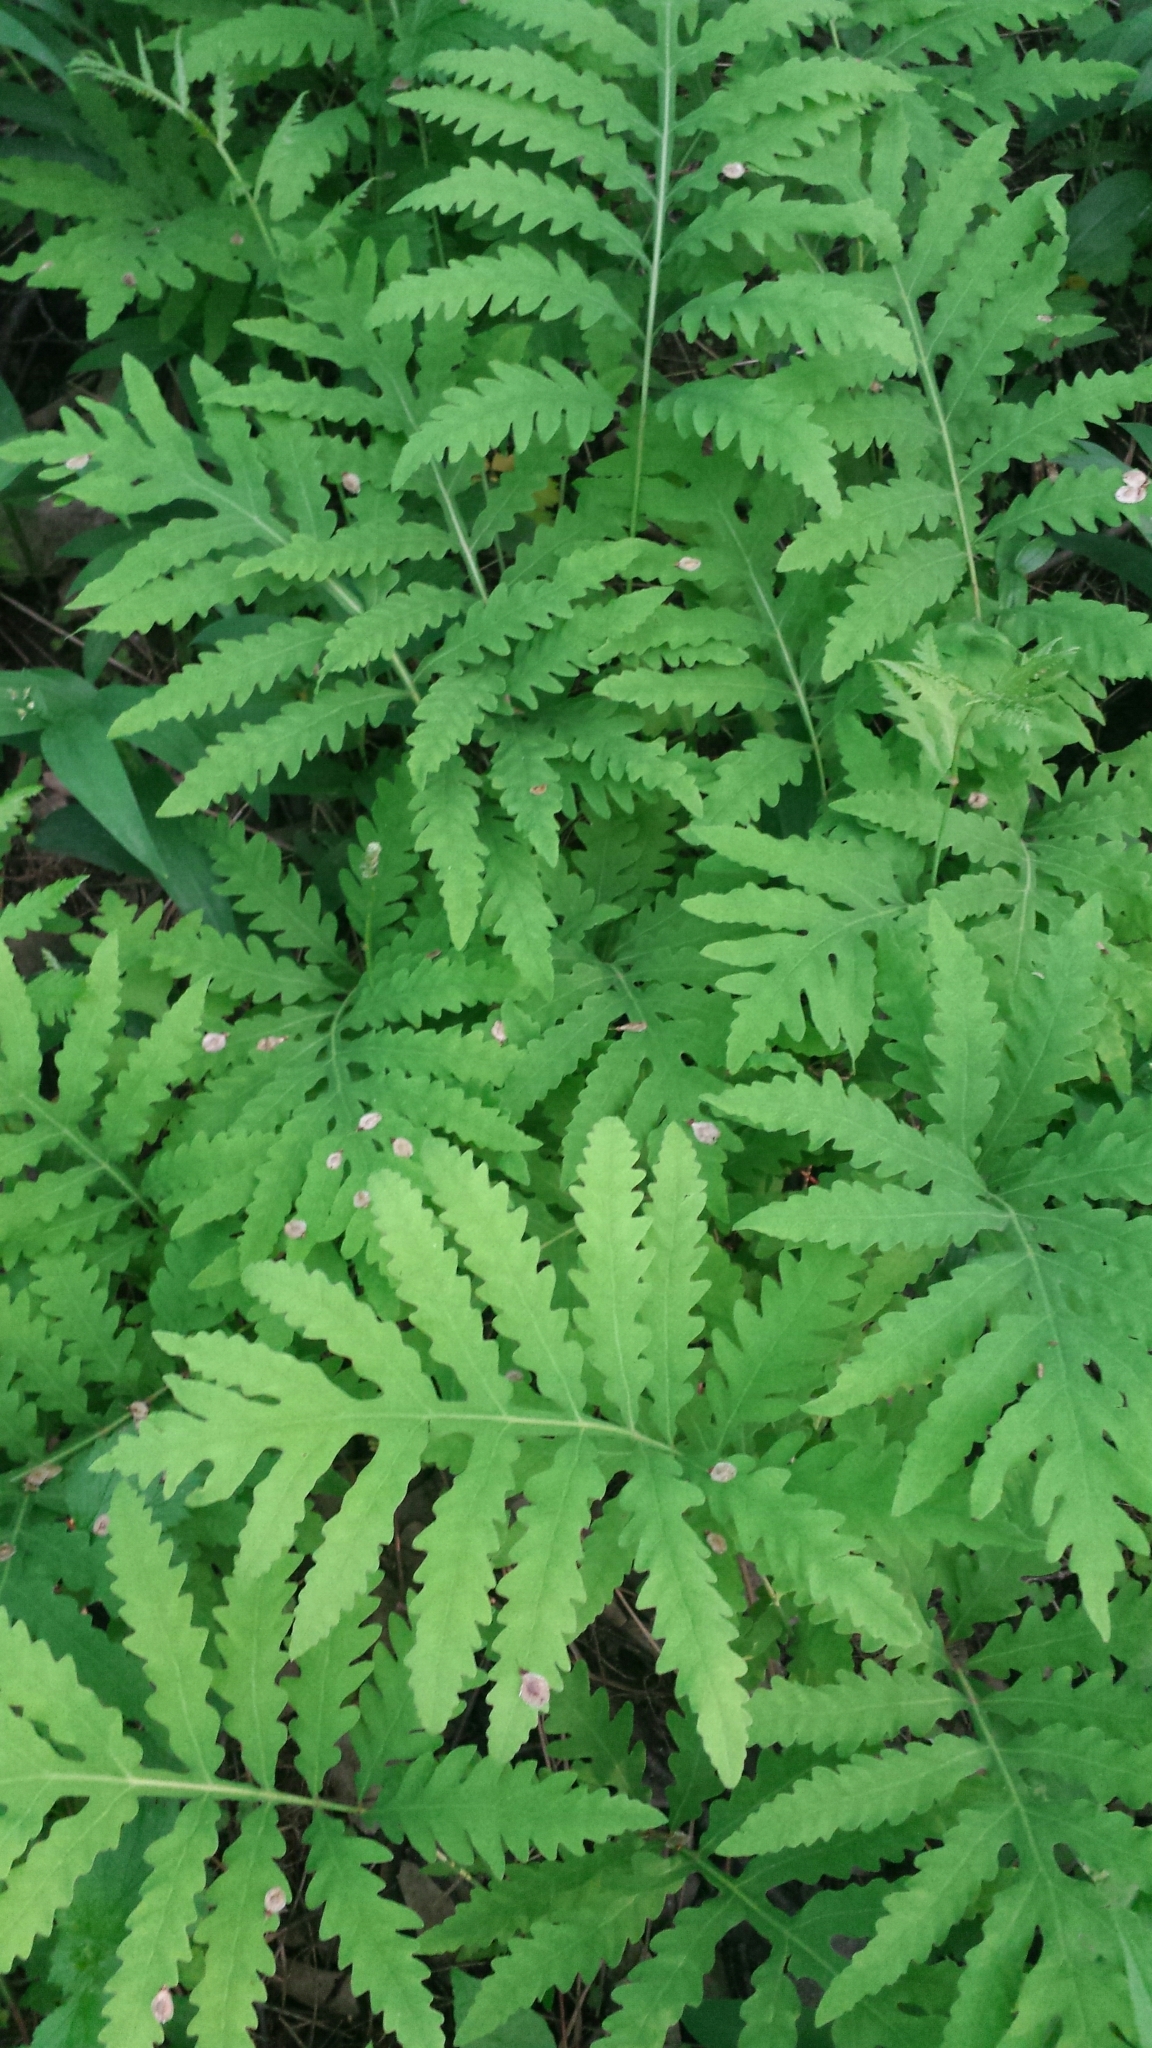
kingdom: Plantae
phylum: Tracheophyta
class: Polypodiopsida
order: Polypodiales
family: Onocleaceae
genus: Onoclea
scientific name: Onoclea sensibilis
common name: Sensitive fern
